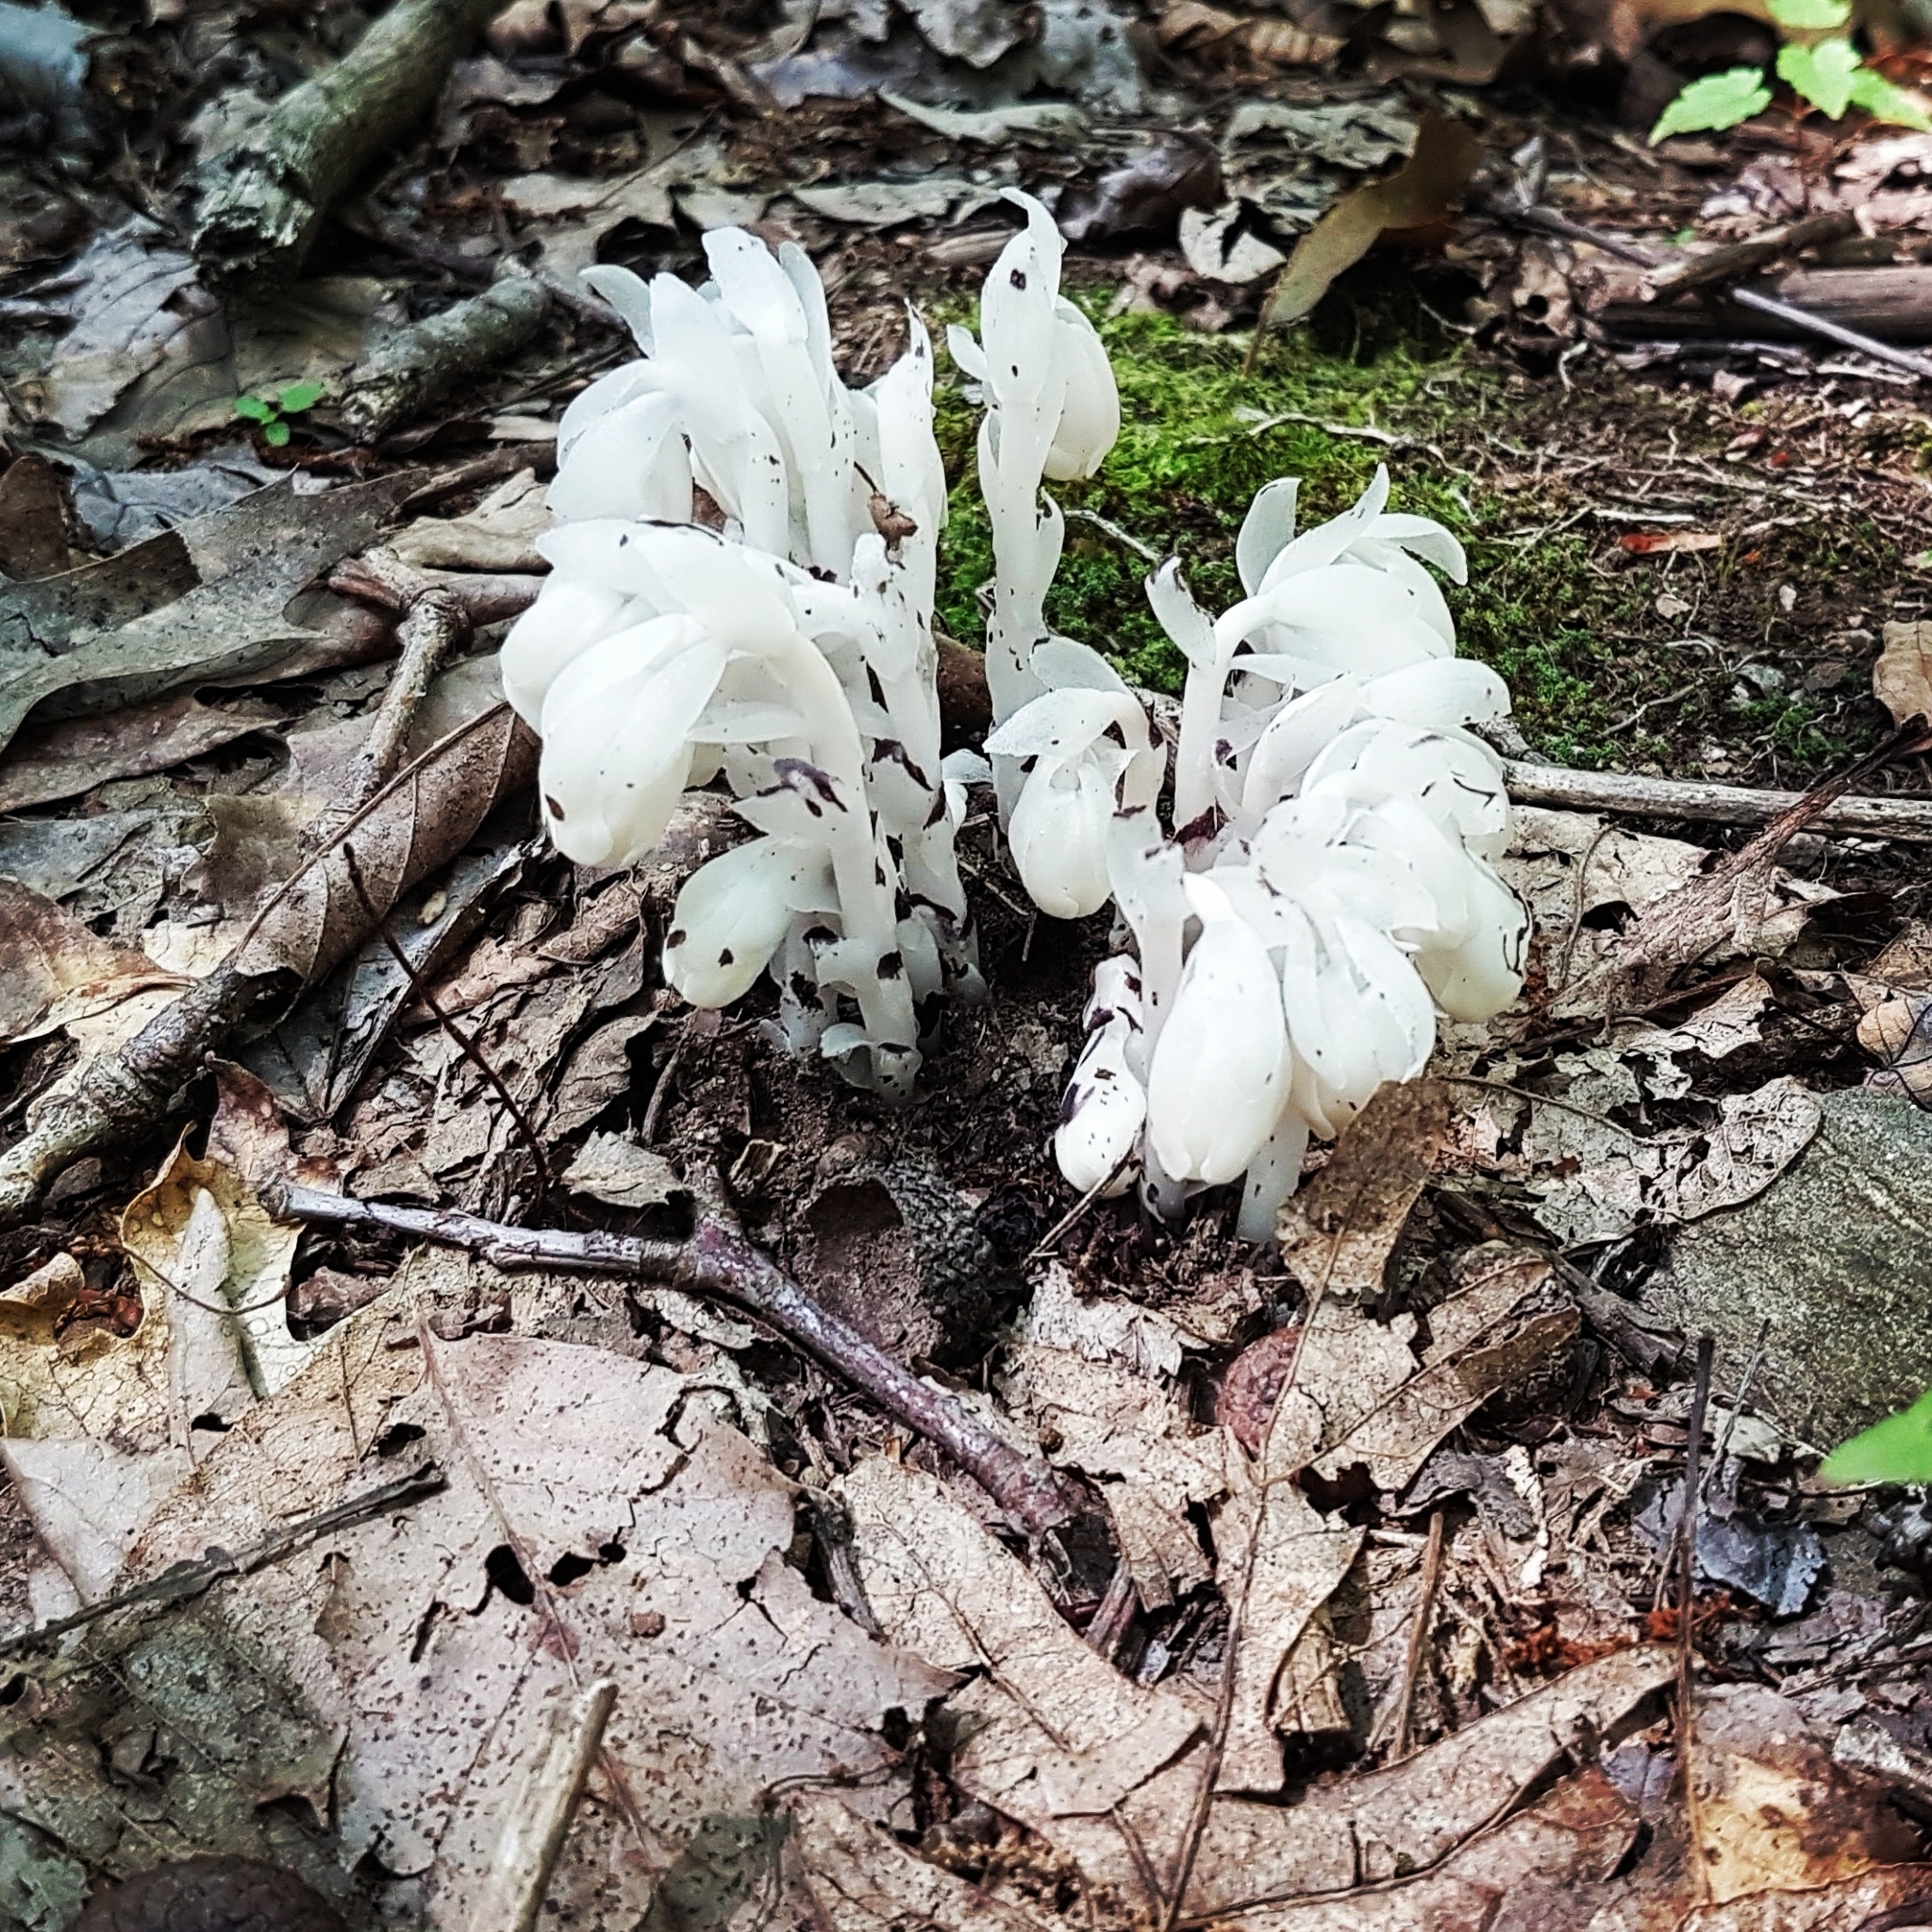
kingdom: Plantae
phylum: Tracheophyta
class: Magnoliopsida
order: Ericales
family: Ericaceae
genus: Monotropa
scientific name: Monotropa uniflora
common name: Convulsion root
